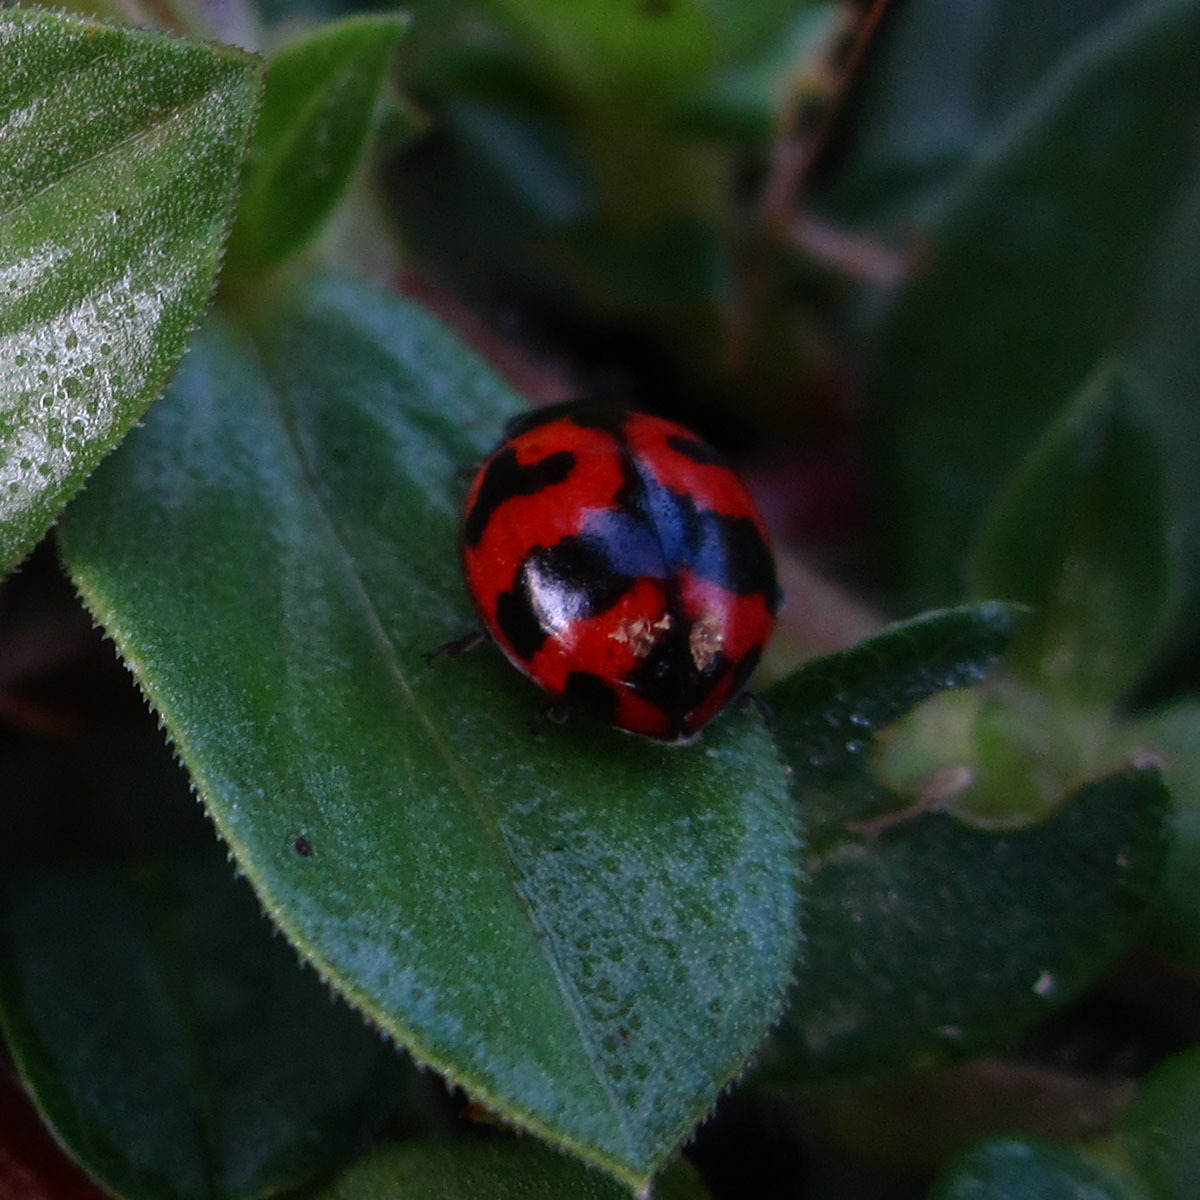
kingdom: Animalia
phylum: Arthropoda
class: Insecta
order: Coleoptera
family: Coccinellidae
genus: Coccinella
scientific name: Coccinella transversalis
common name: Transverse lady beetle
